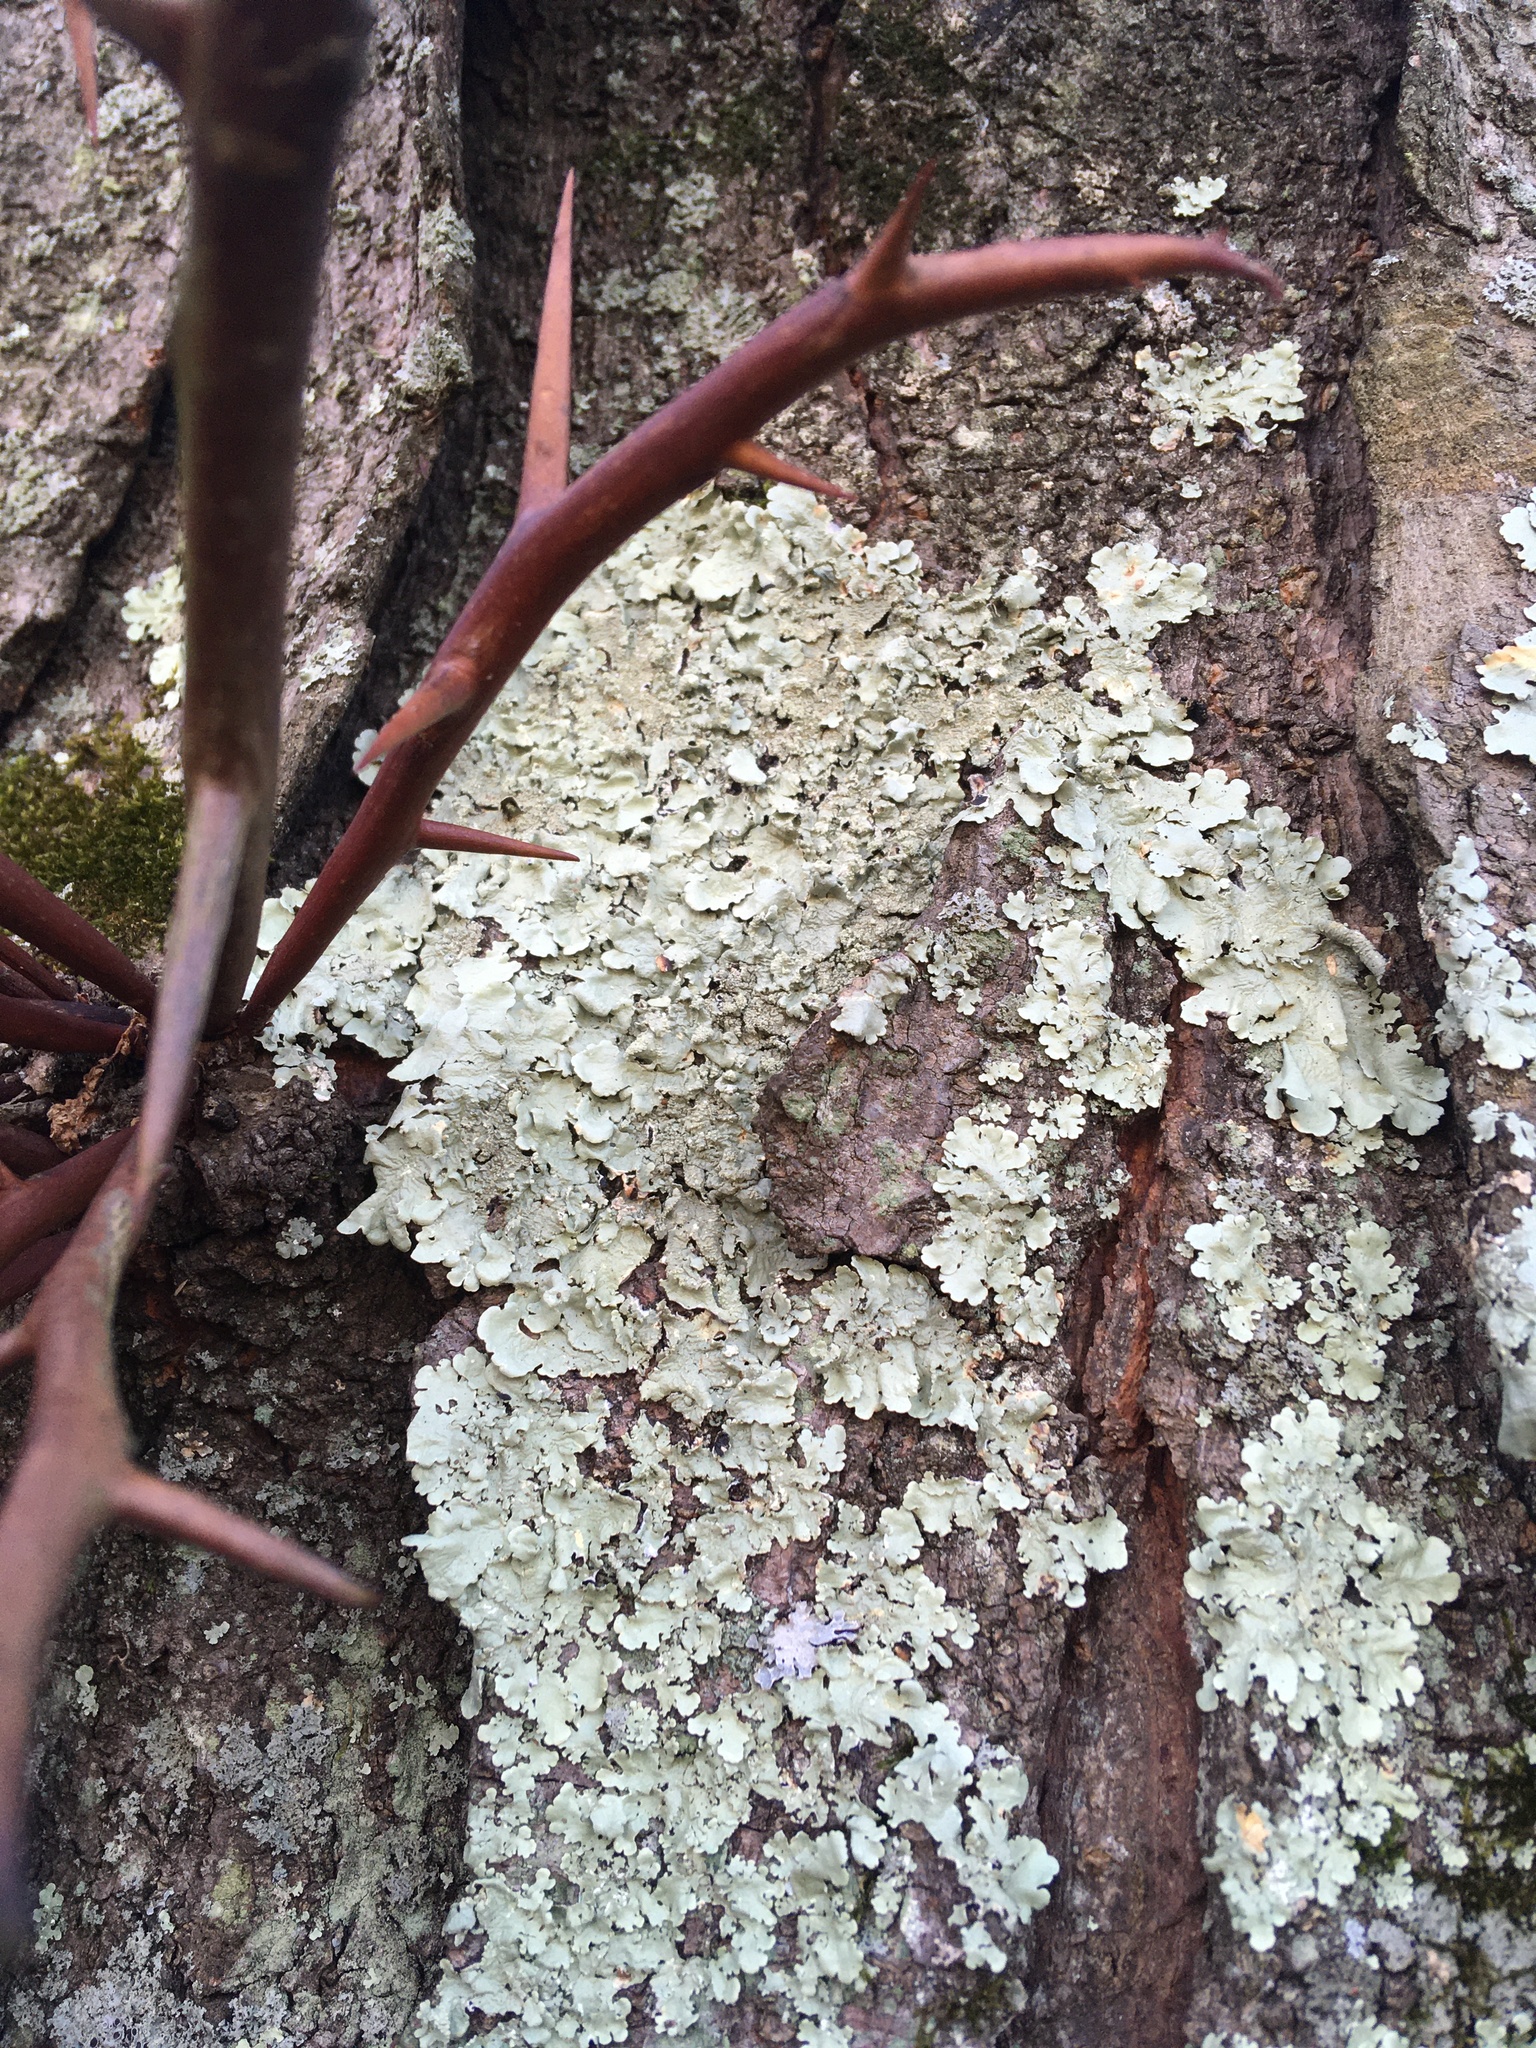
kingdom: Fungi
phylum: Ascomycota
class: Lecanoromycetes
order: Lecanorales
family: Parmeliaceae
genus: Flavoparmelia
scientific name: Flavoparmelia caperata
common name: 40-mile per hour lichen
